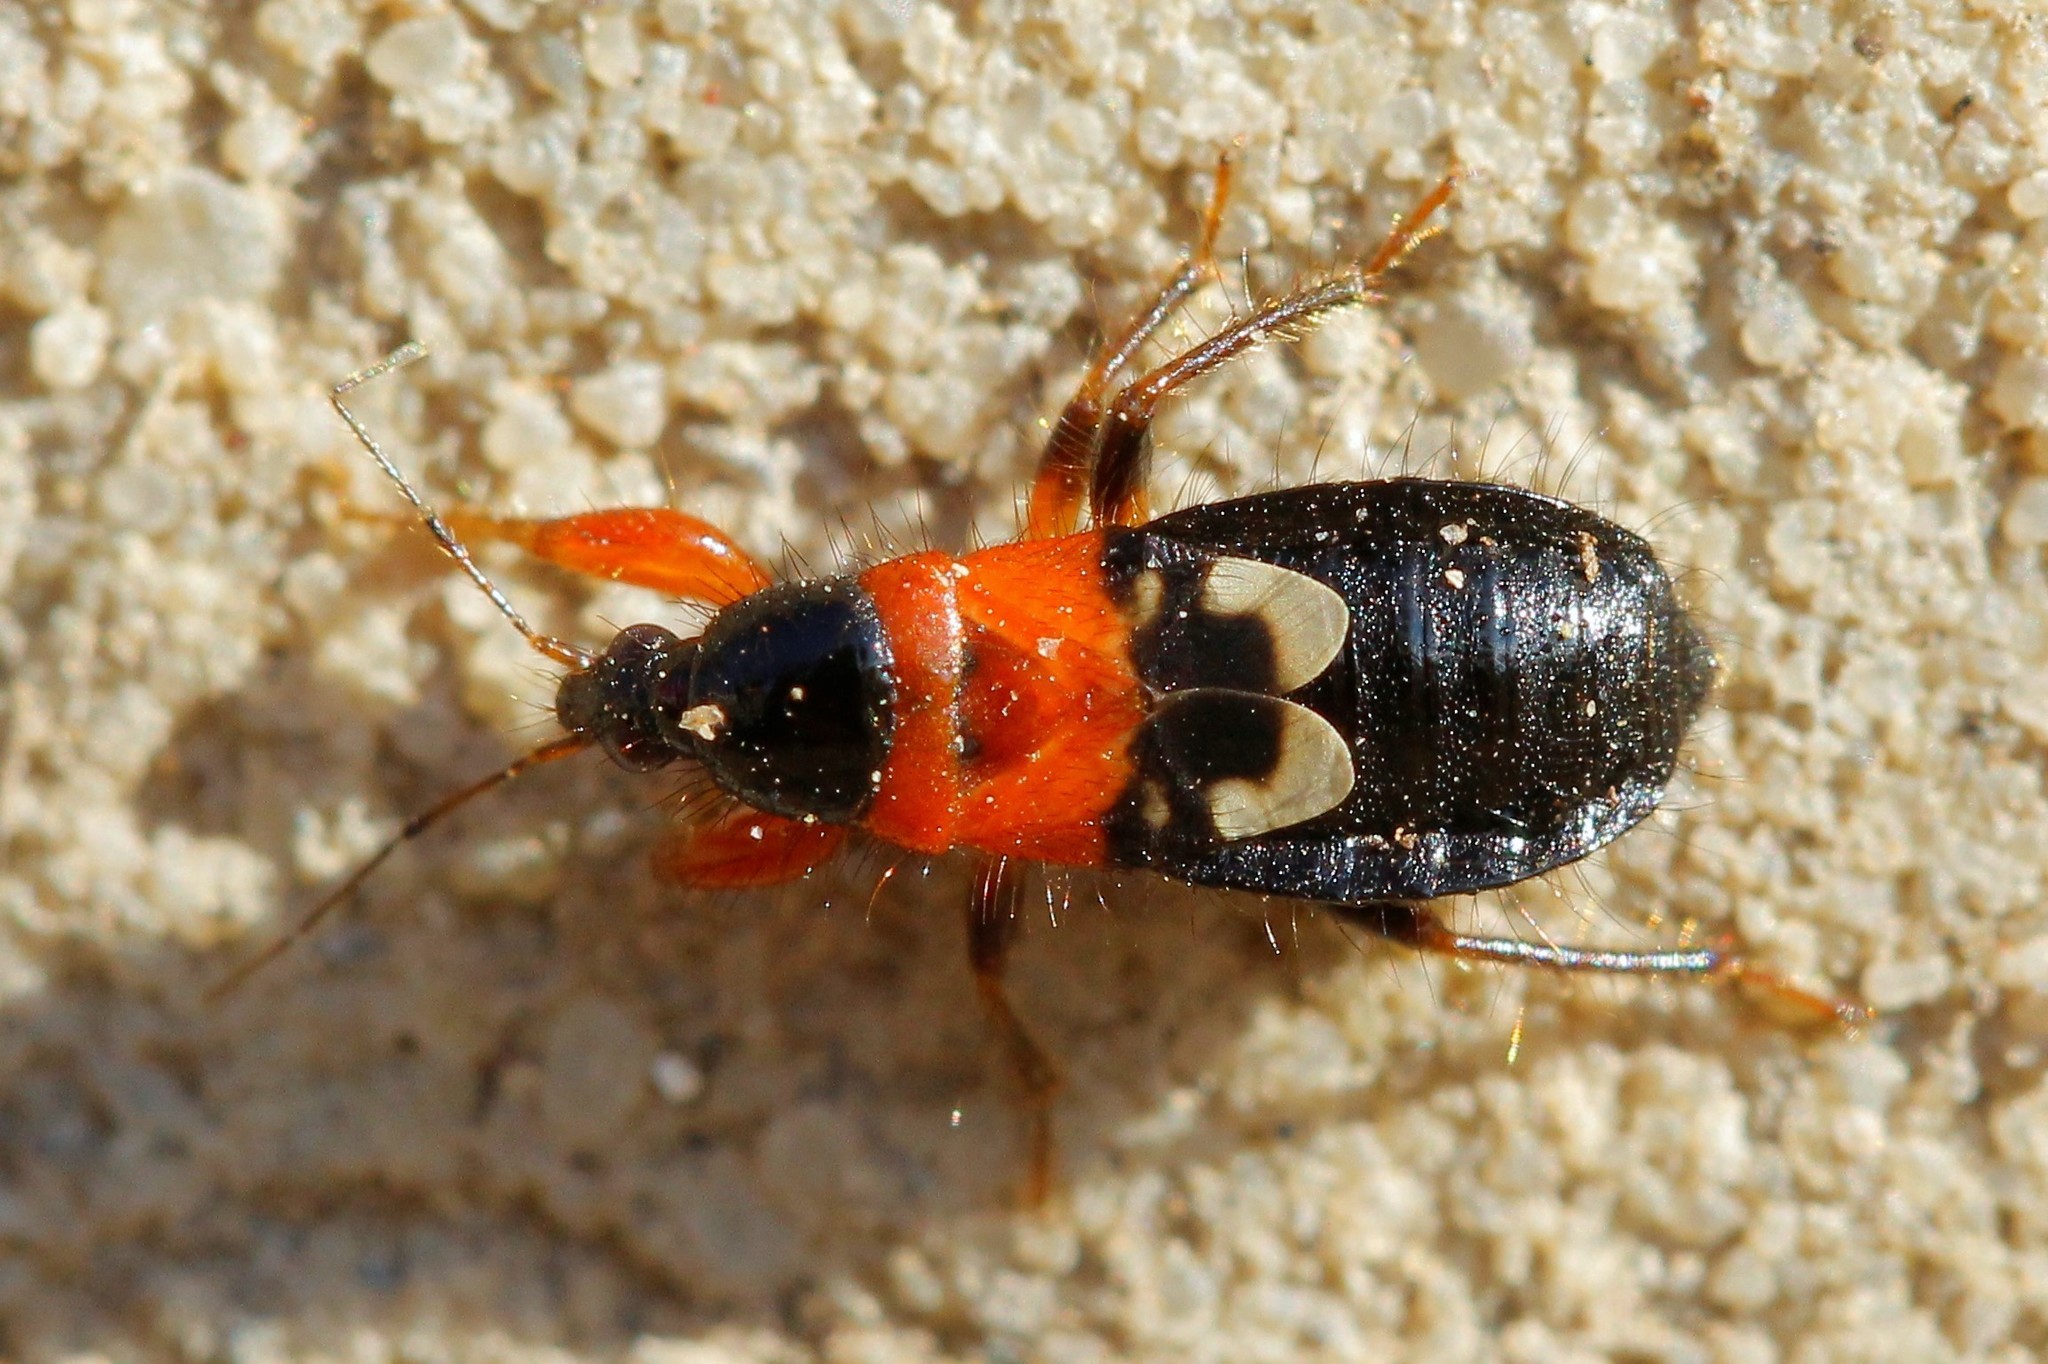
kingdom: Animalia
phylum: Arthropoda
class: Insecta
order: Hemiptera
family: Nabidae
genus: Prostemma
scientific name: Prostemma sanguineum
